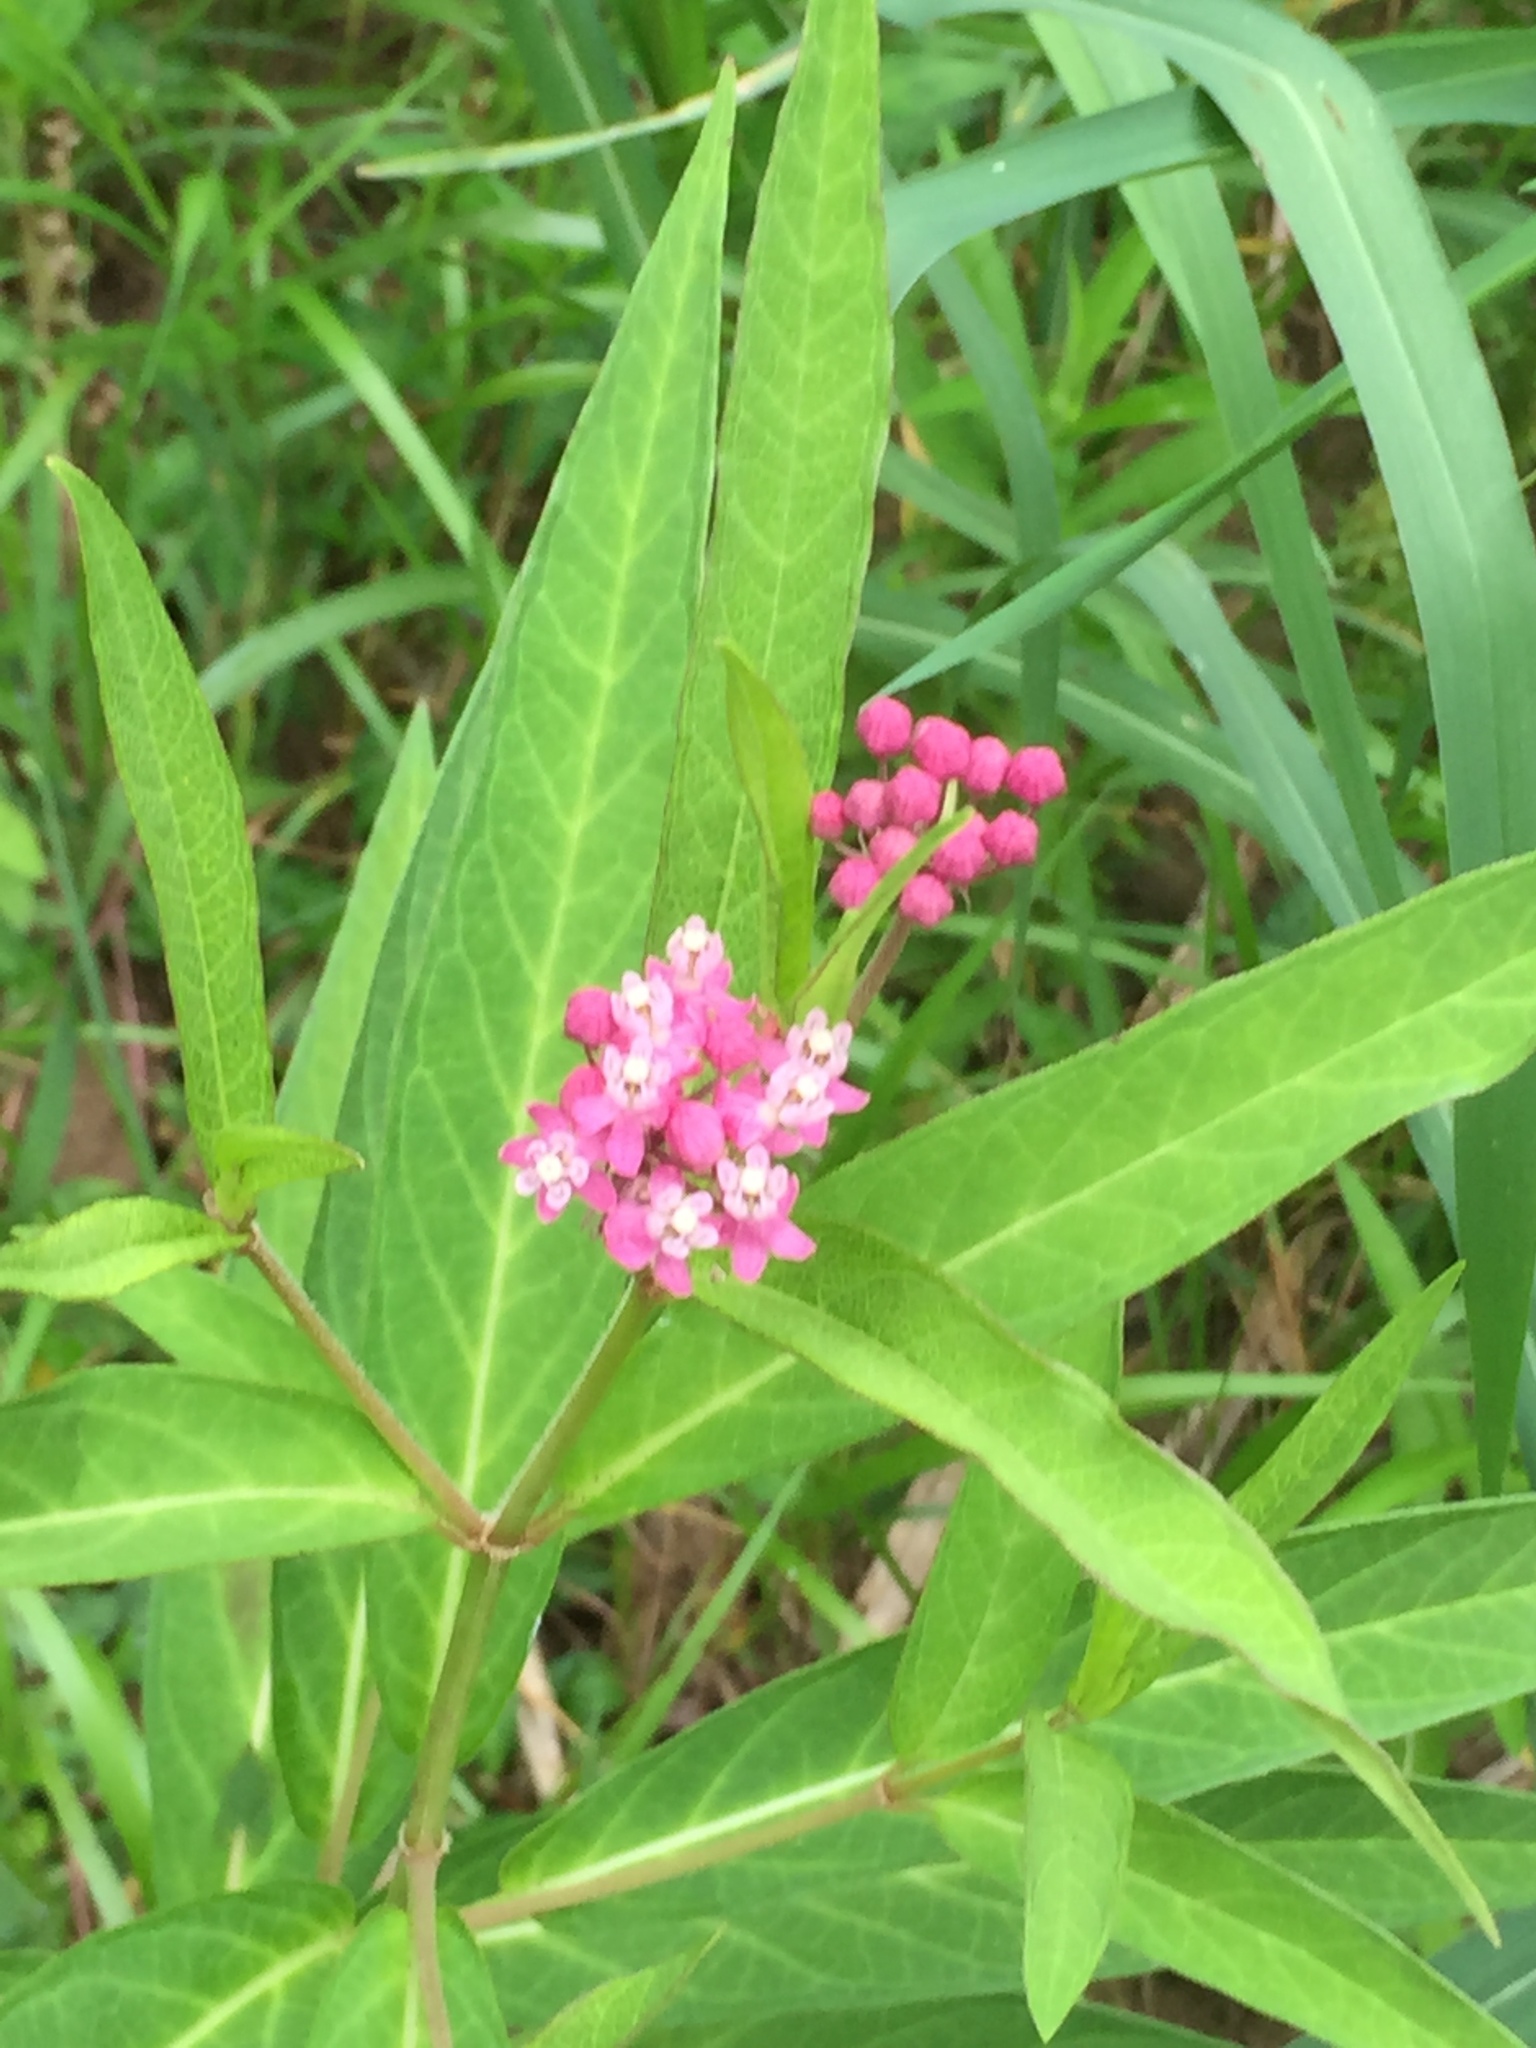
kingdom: Plantae
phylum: Tracheophyta
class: Magnoliopsida
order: Gentianales
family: Apocynaceae
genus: Asclepias
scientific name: Asclepias incarnata
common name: Swamp milkweed
